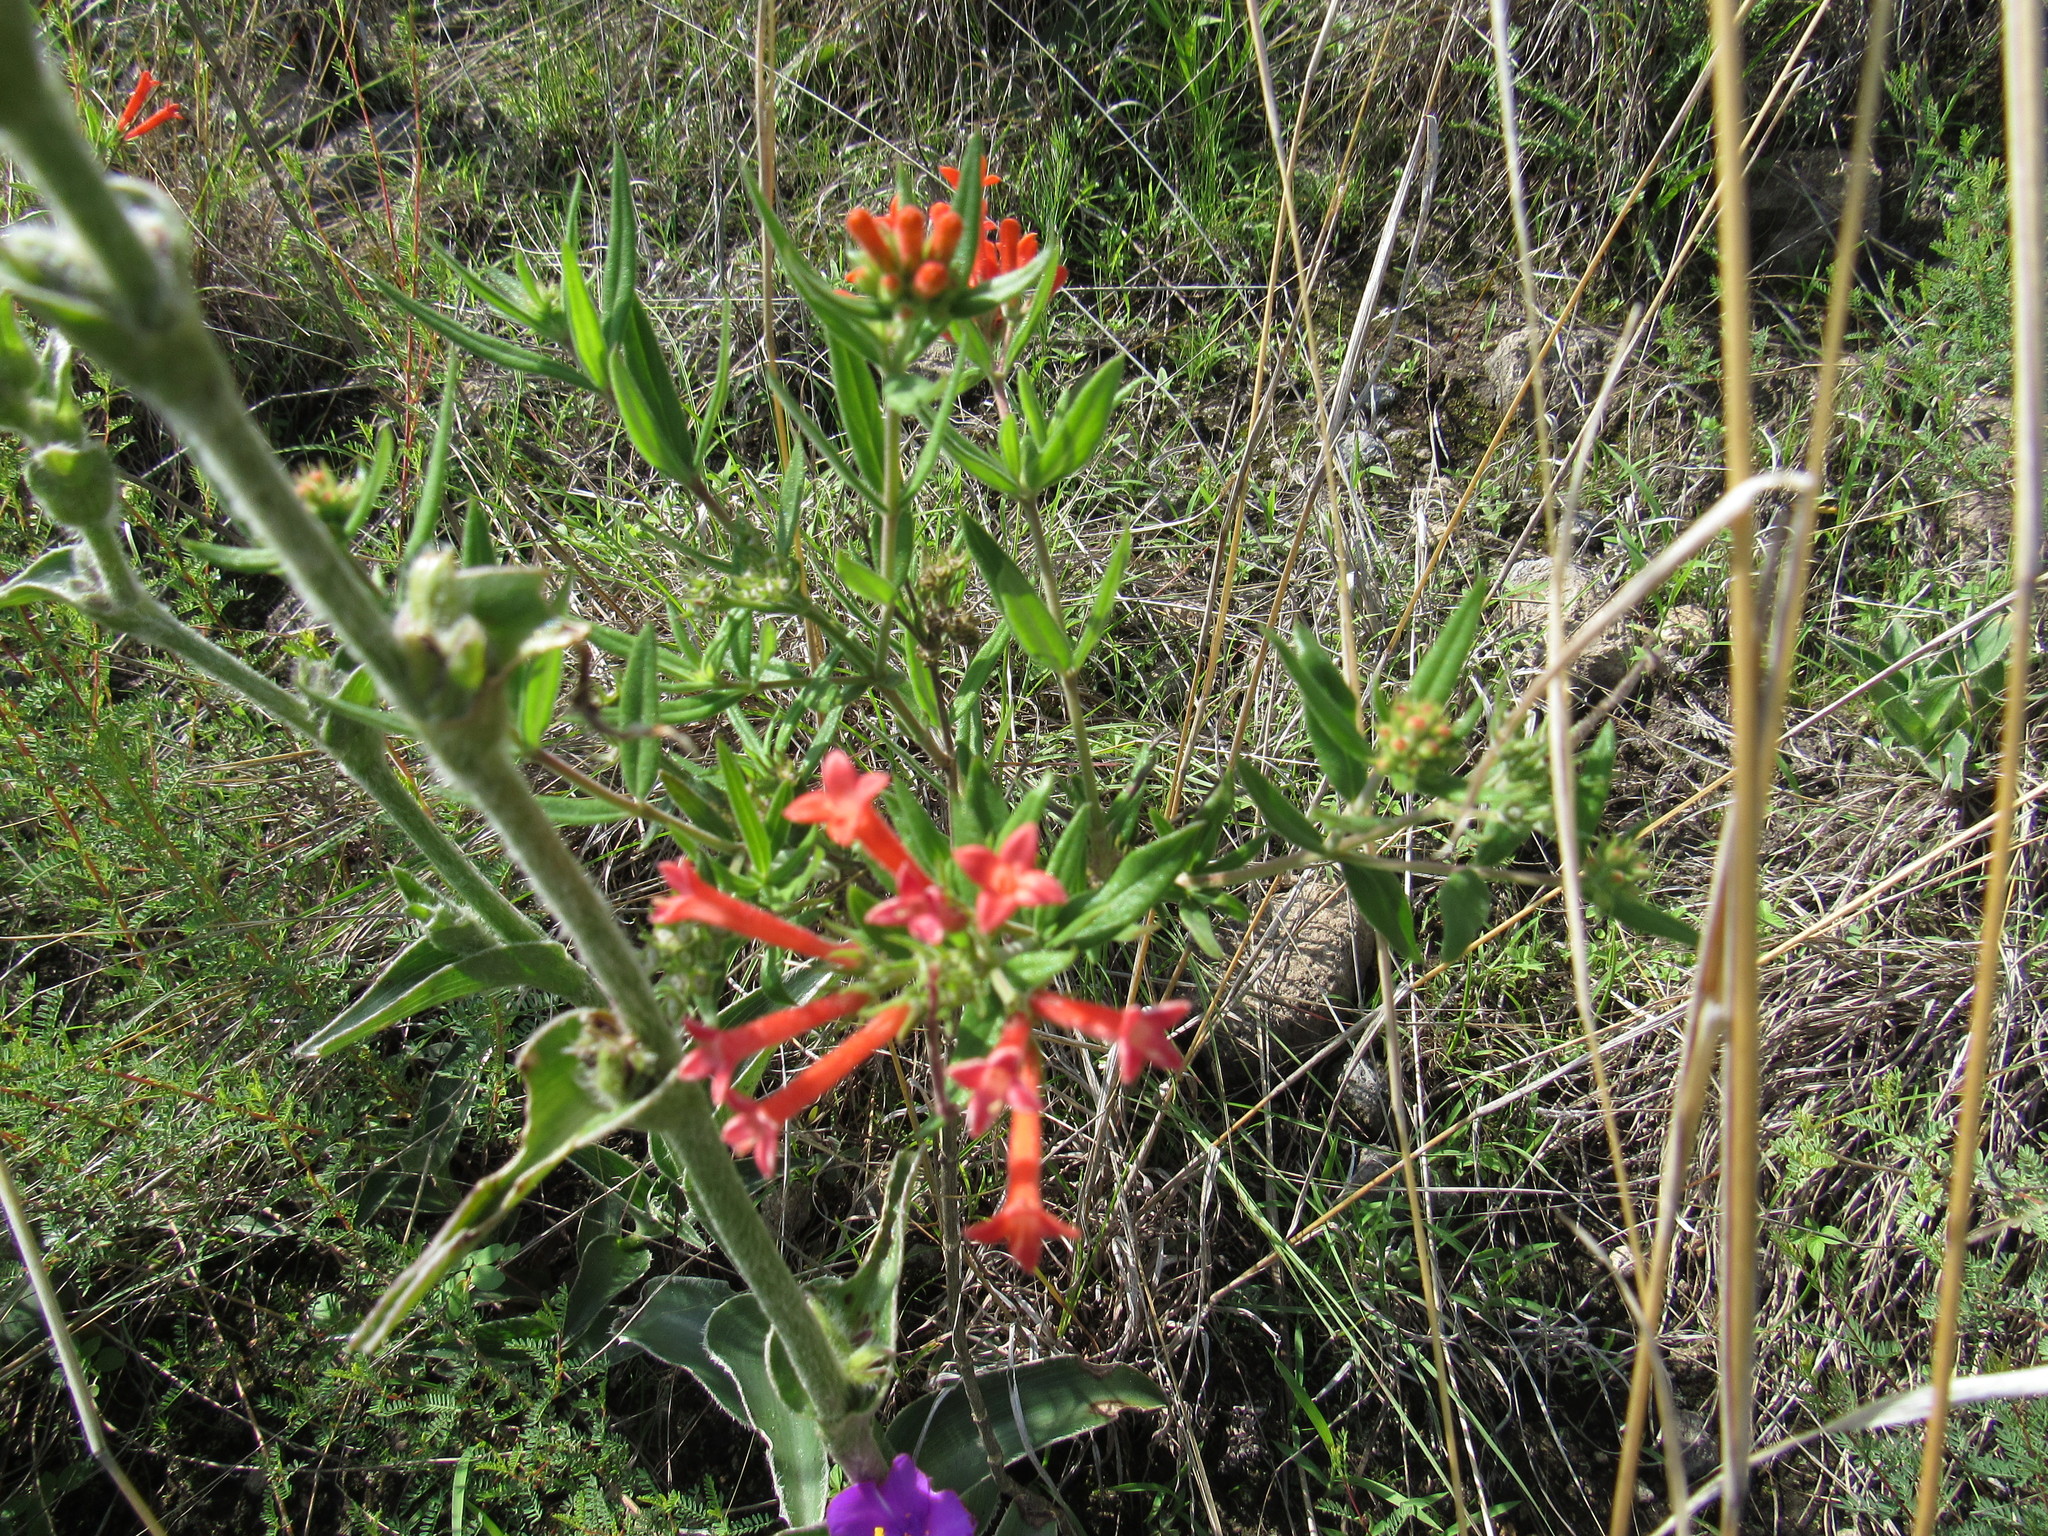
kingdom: Plantae
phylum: Tracheophyta
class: Magnoliopsida
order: Gentianales
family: Rubiaceae
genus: Bouvardia
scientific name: Bouvardia ternifolia
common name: Scarlet bouvardia
